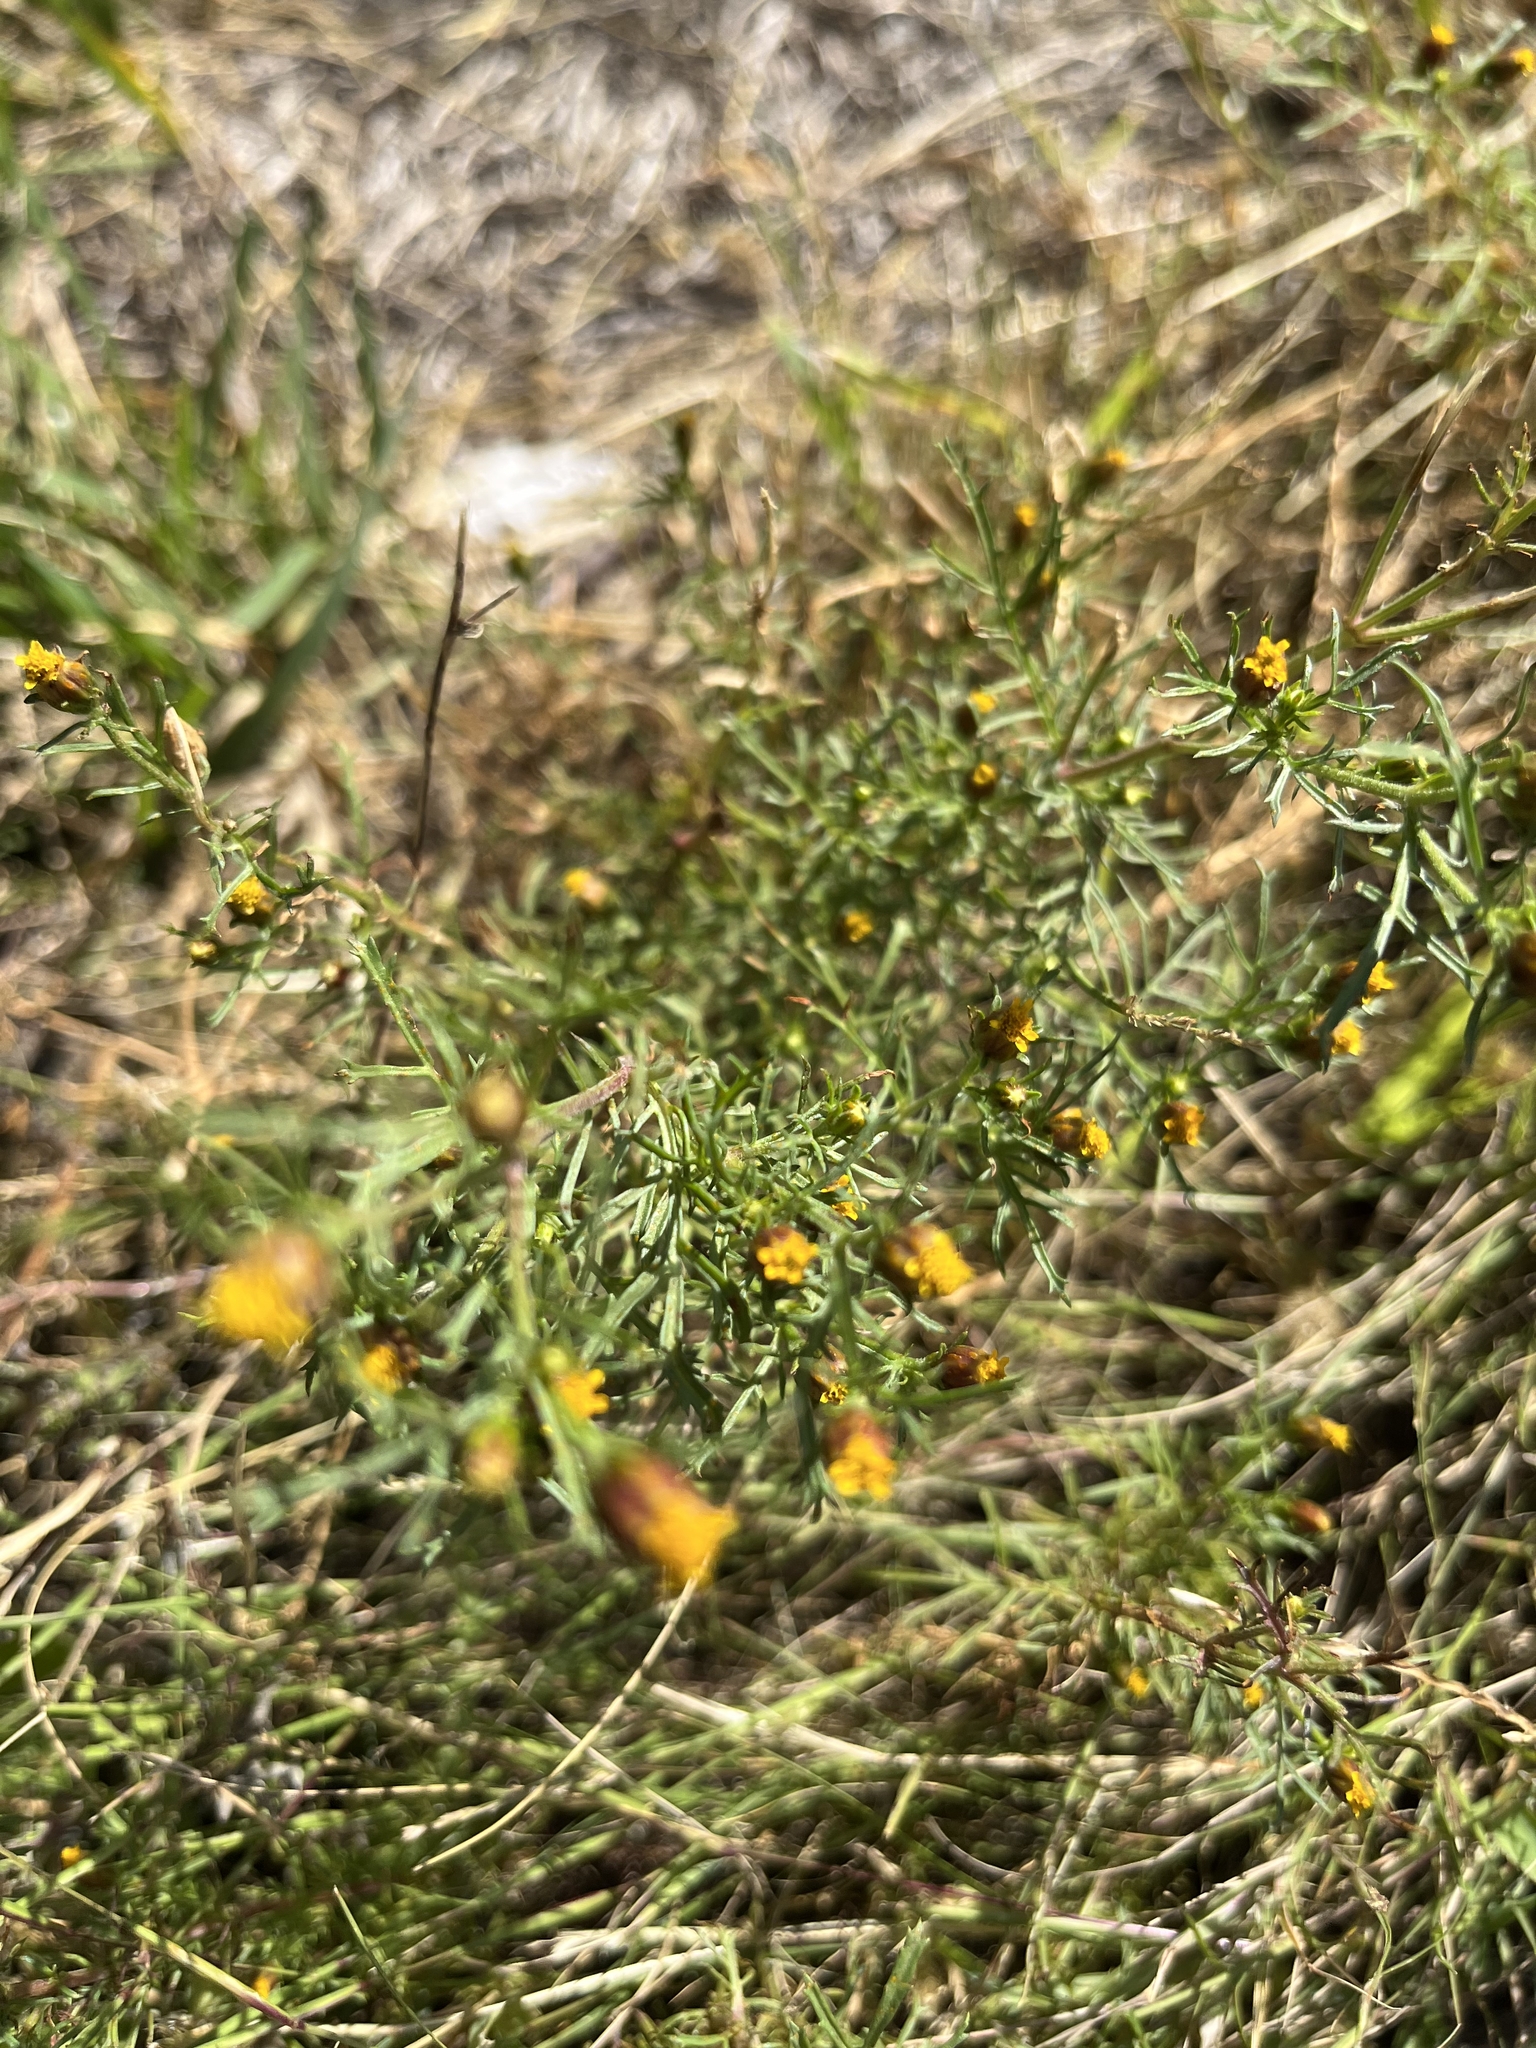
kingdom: Plantae
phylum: Tracheophyta
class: Magnoliopsida
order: Asterales
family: Asteraceae
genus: Dyssodia
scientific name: Dyssodia papposa
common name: Dogweed
